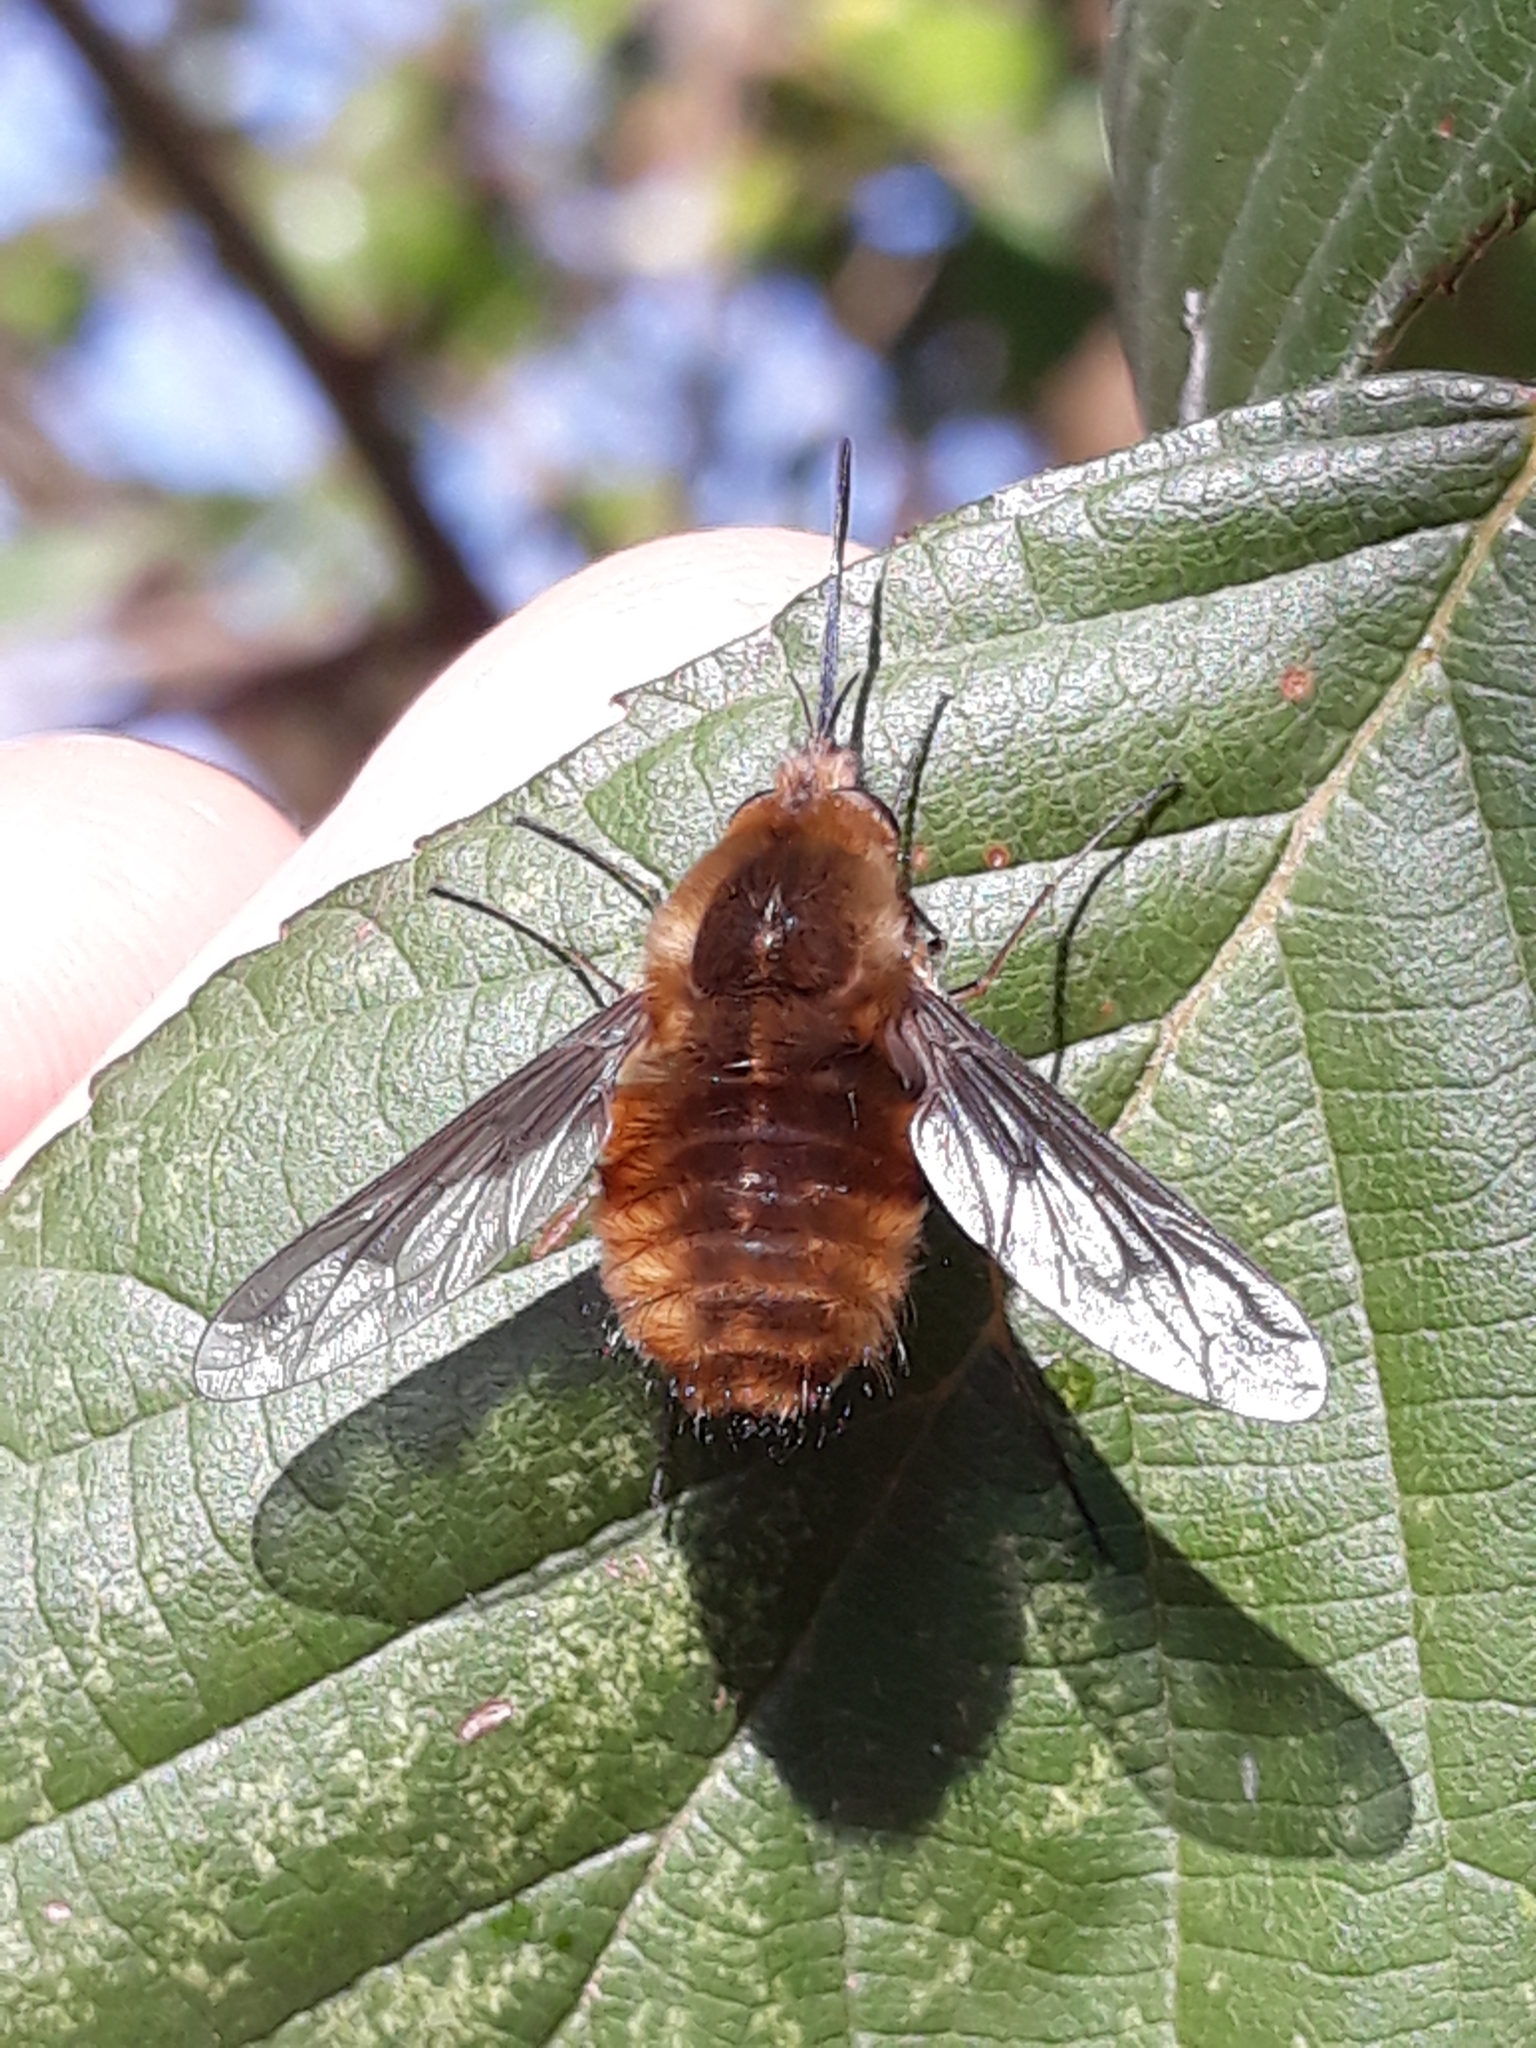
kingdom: Animalia
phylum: Arthropoda
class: Insecta
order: Diptera
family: Bombyliidae
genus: Bombylius
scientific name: Bombylius major
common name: Bee fly
